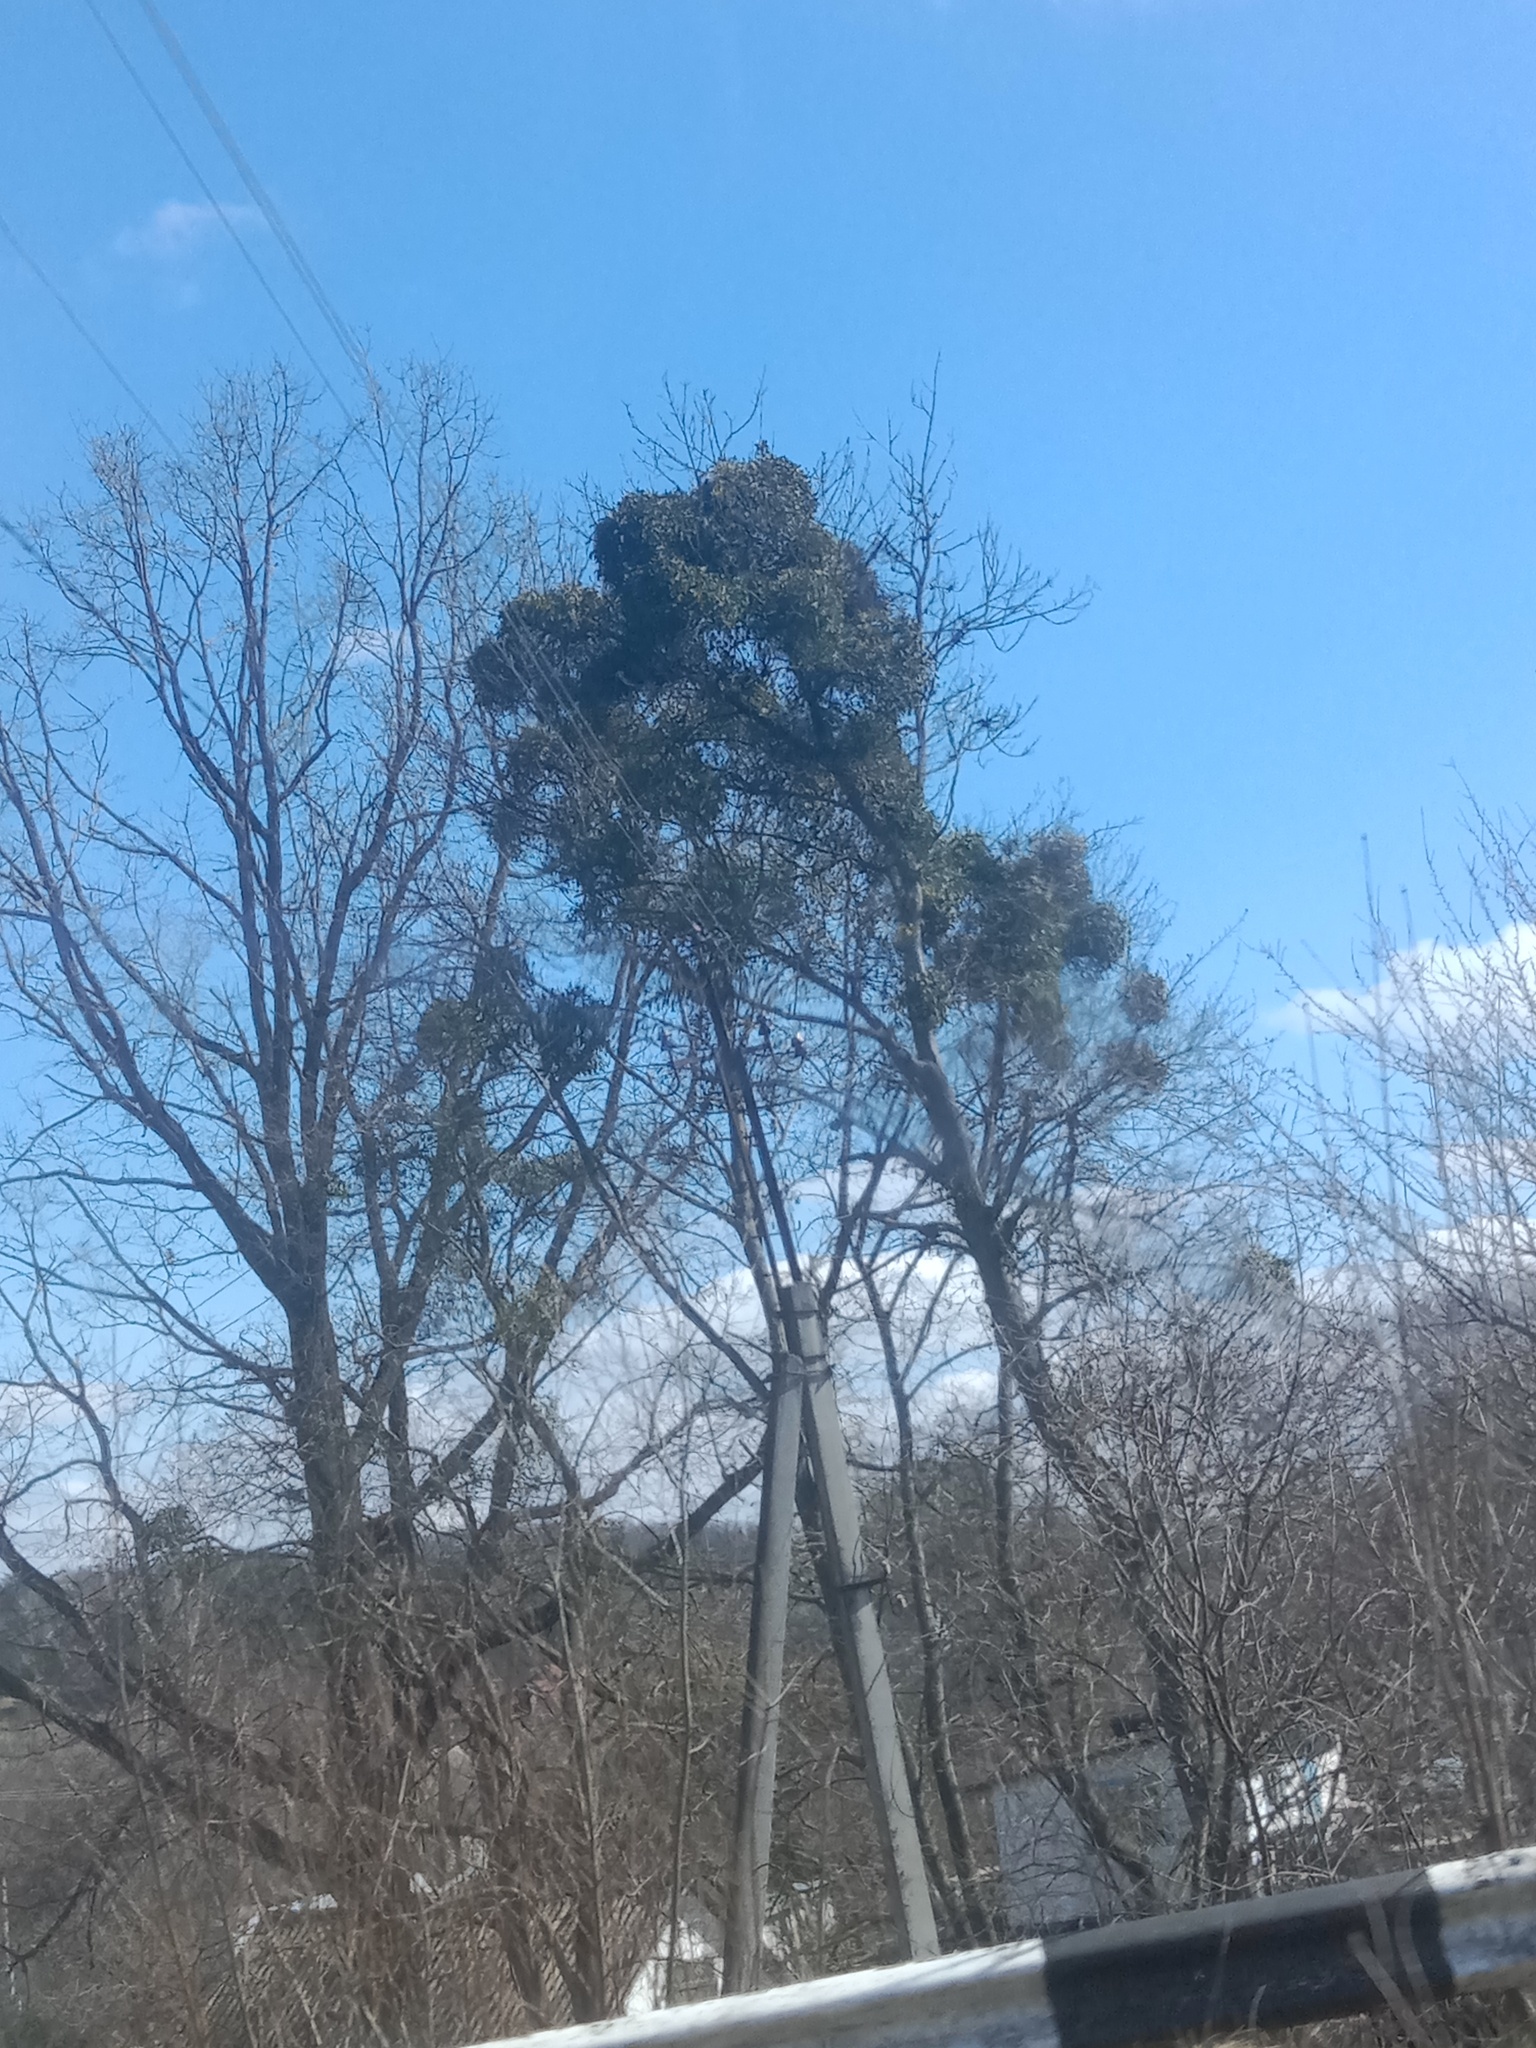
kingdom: Plantae
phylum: Tracheophyta
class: Magnoliopsida
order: Santalales
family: Viscaceae
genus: Viscum
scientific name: Viscum album
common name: Mistletoe
